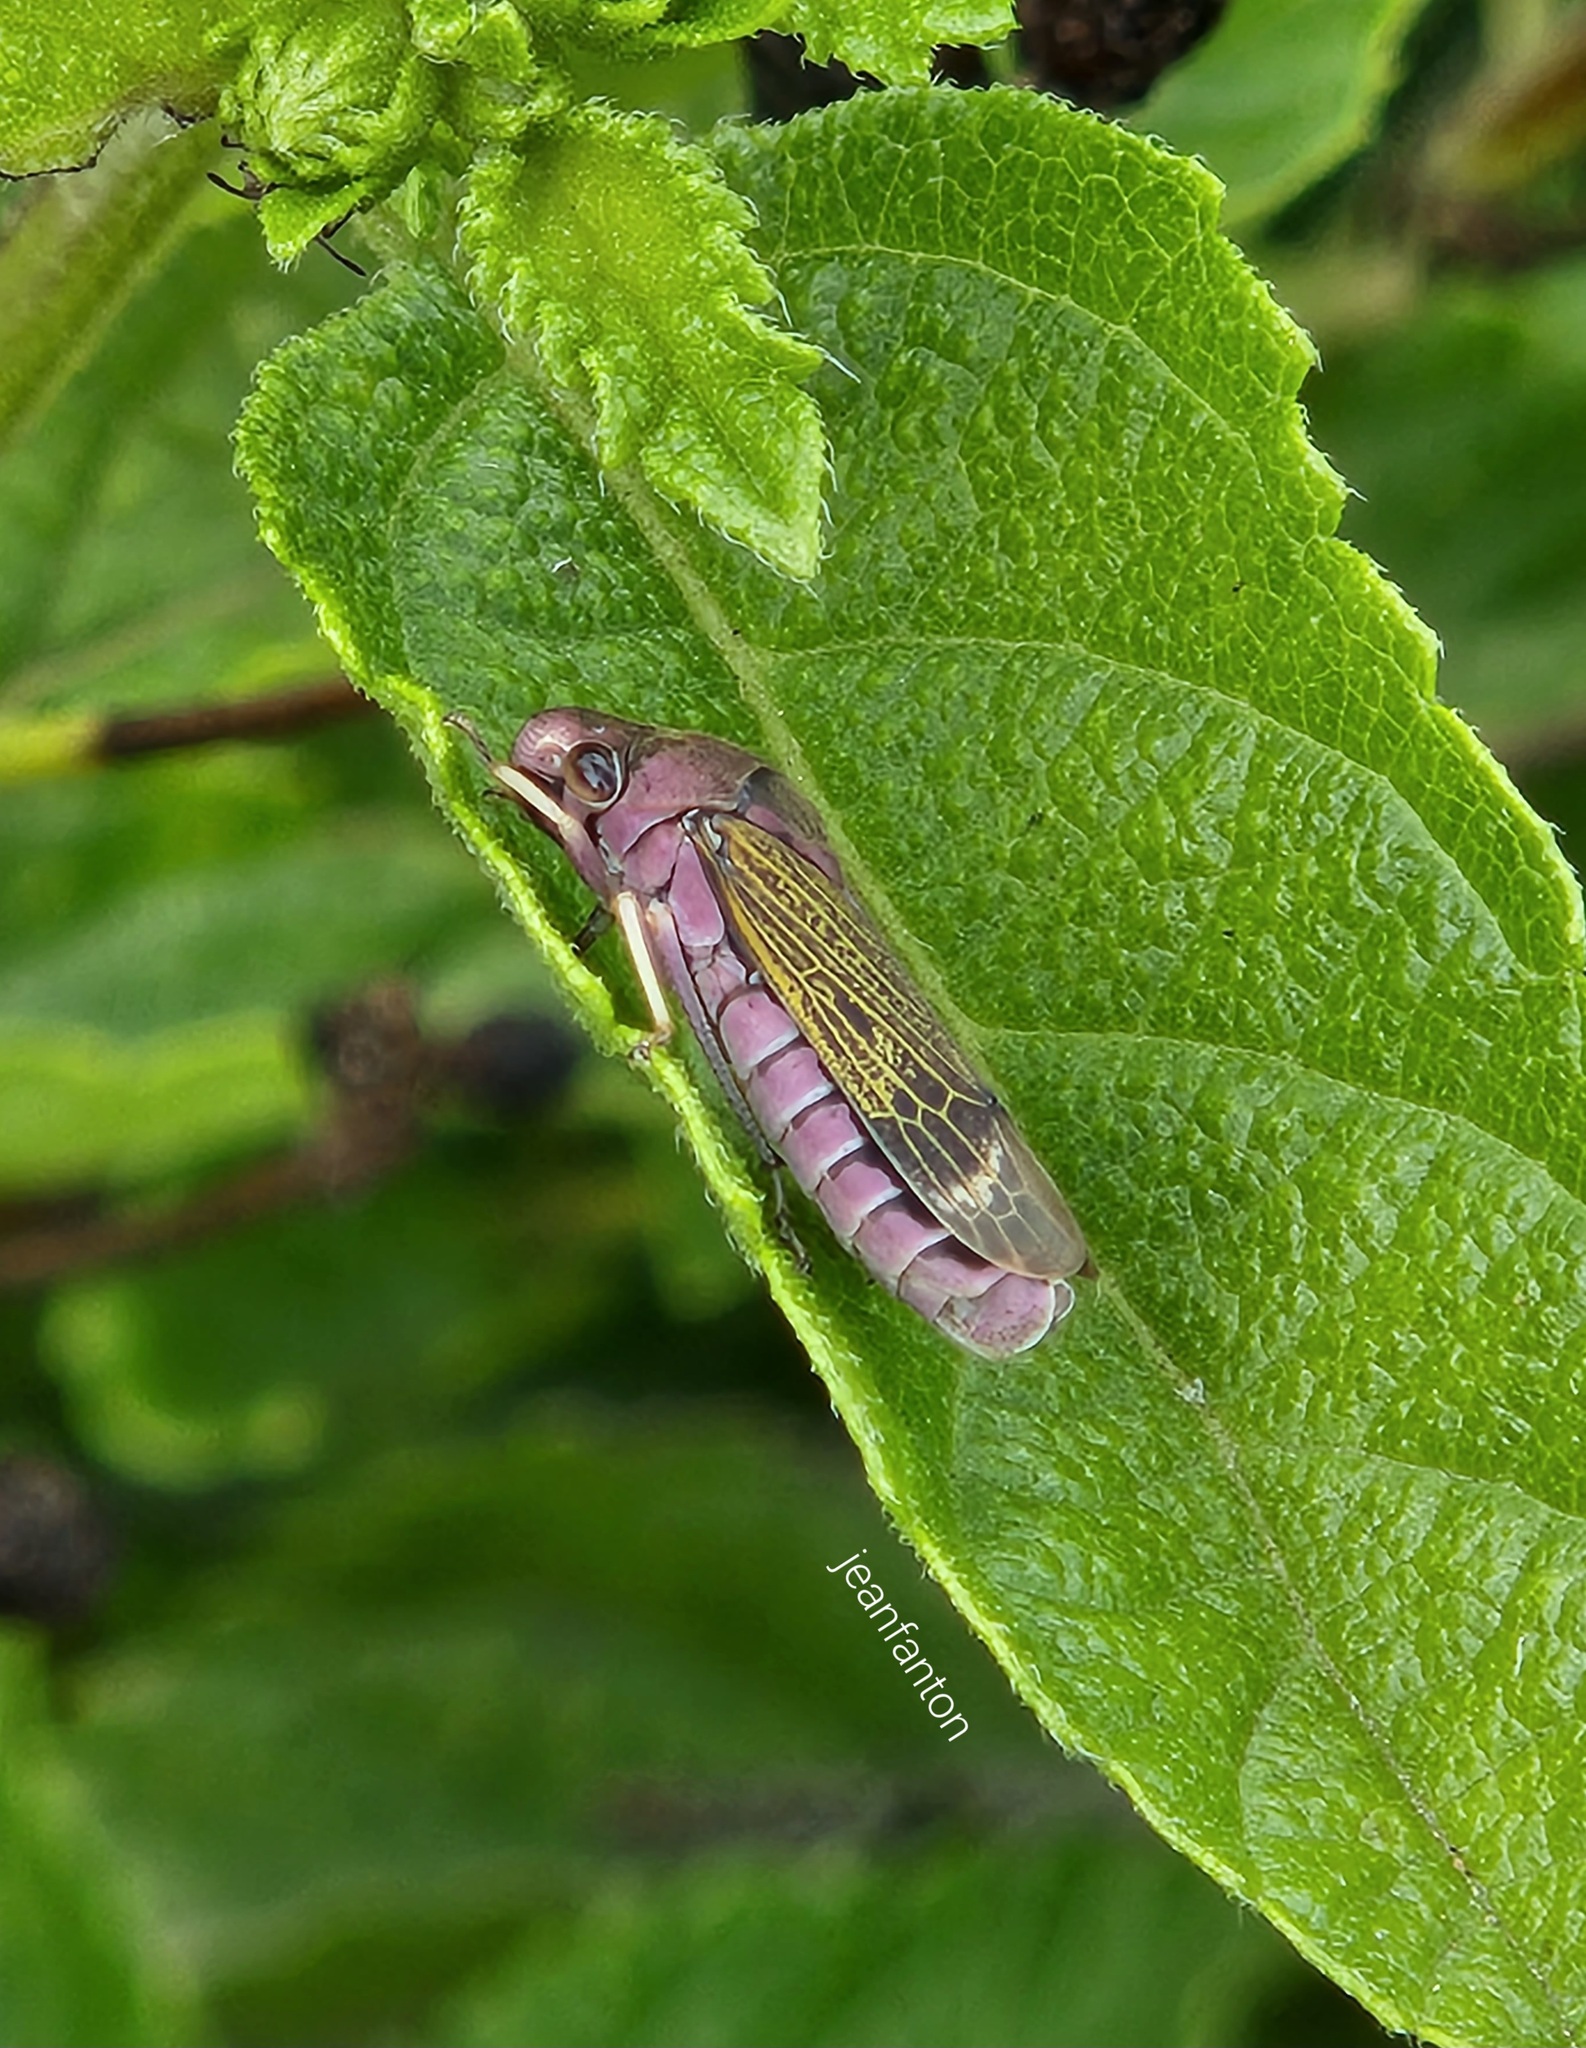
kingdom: Animalia
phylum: Arthropoda
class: Insecta
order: Hemiptera
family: Cicadellidae
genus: Oncometopia
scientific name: Oncometopia facialis
